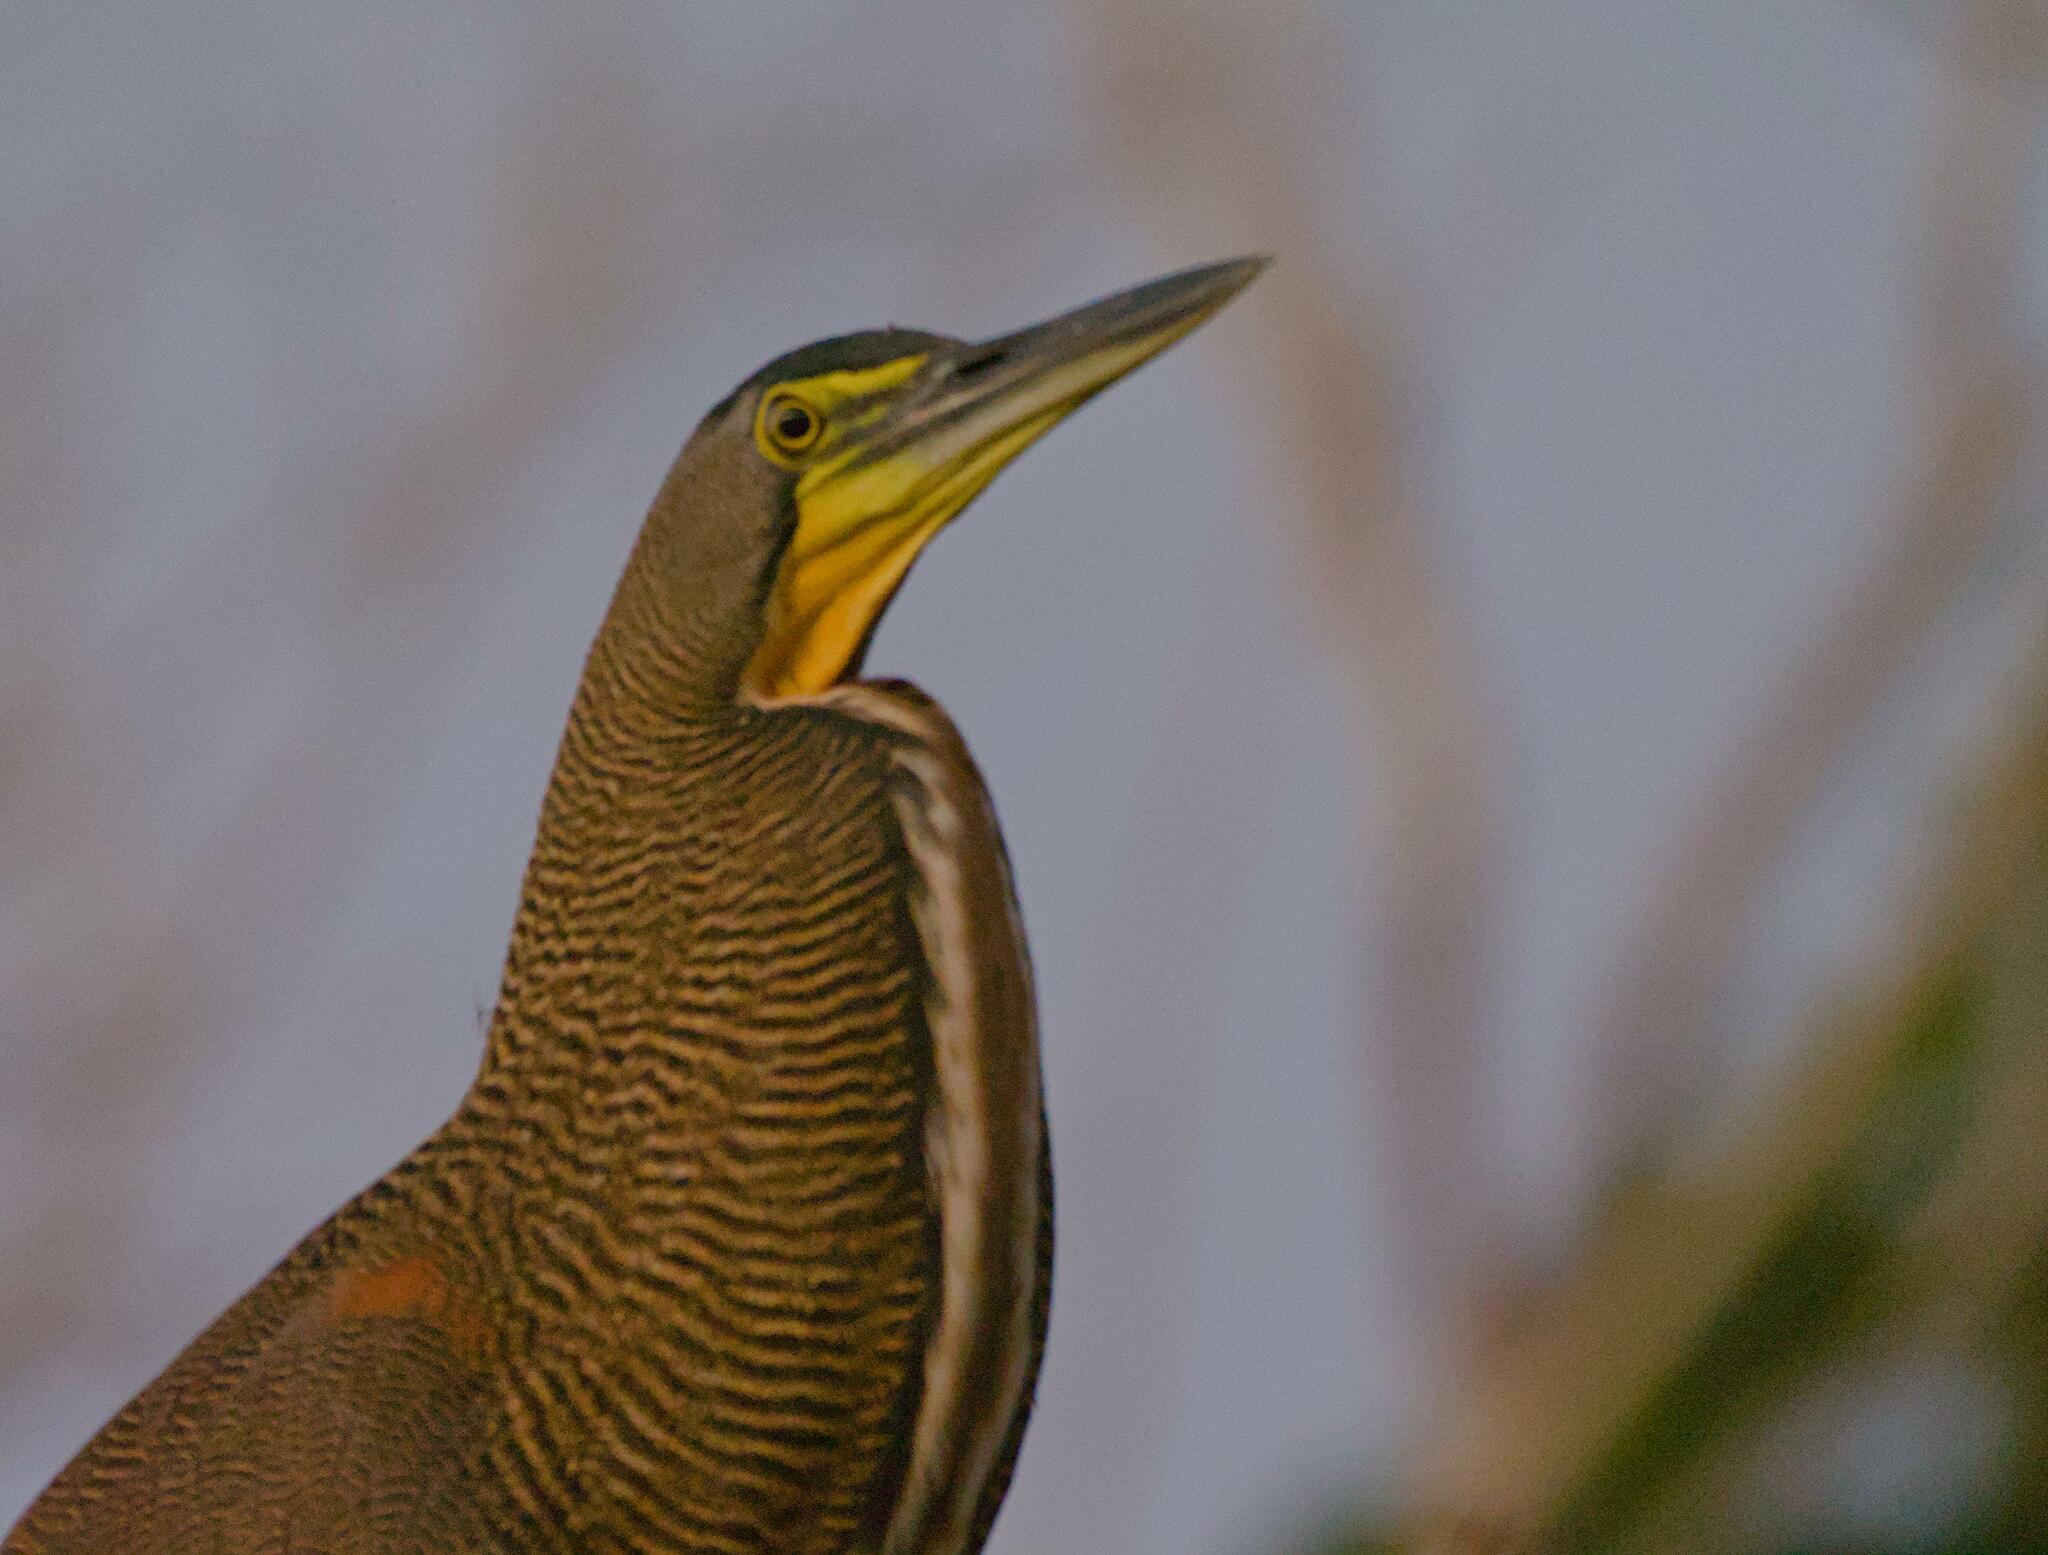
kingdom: Animalia
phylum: Chordata
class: Aves
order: Pelecaniformes
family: Ardeidae
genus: Tigrisoma
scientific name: Tigrisoma mexicanum
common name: Bare-throated tiger-heron
